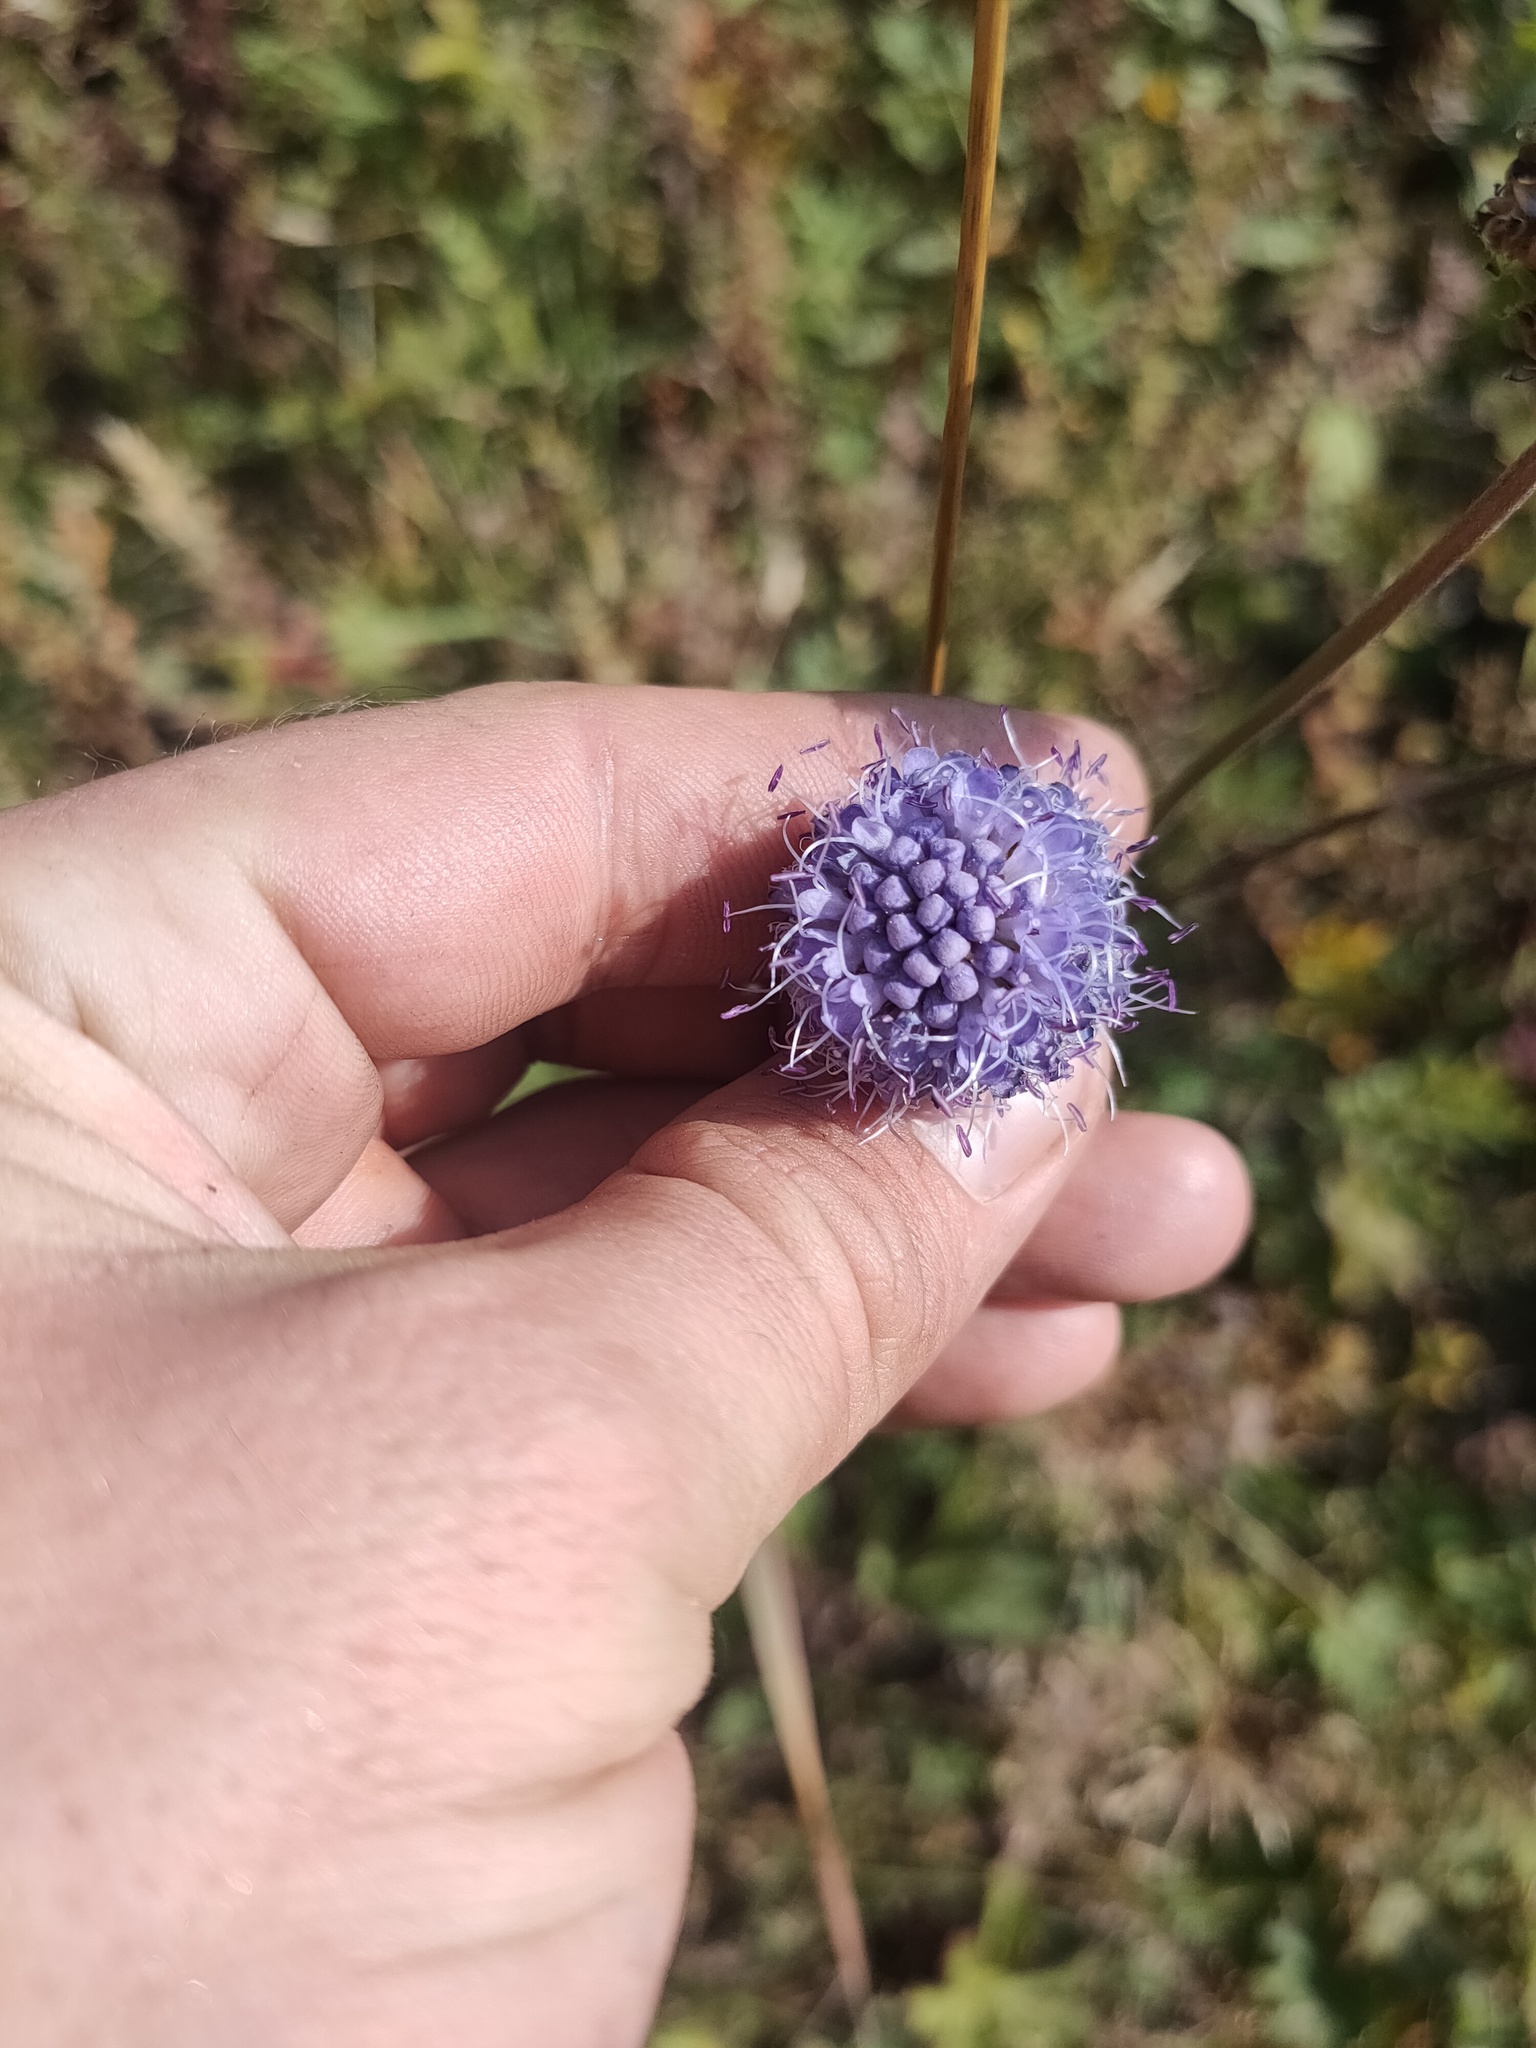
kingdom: Plantae
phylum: Tracheophyta
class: Magnoliopsida
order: Dipsacales
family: Caprifoliaceae
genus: Succisa
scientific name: Succisa pratensis
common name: Devil's-bit
